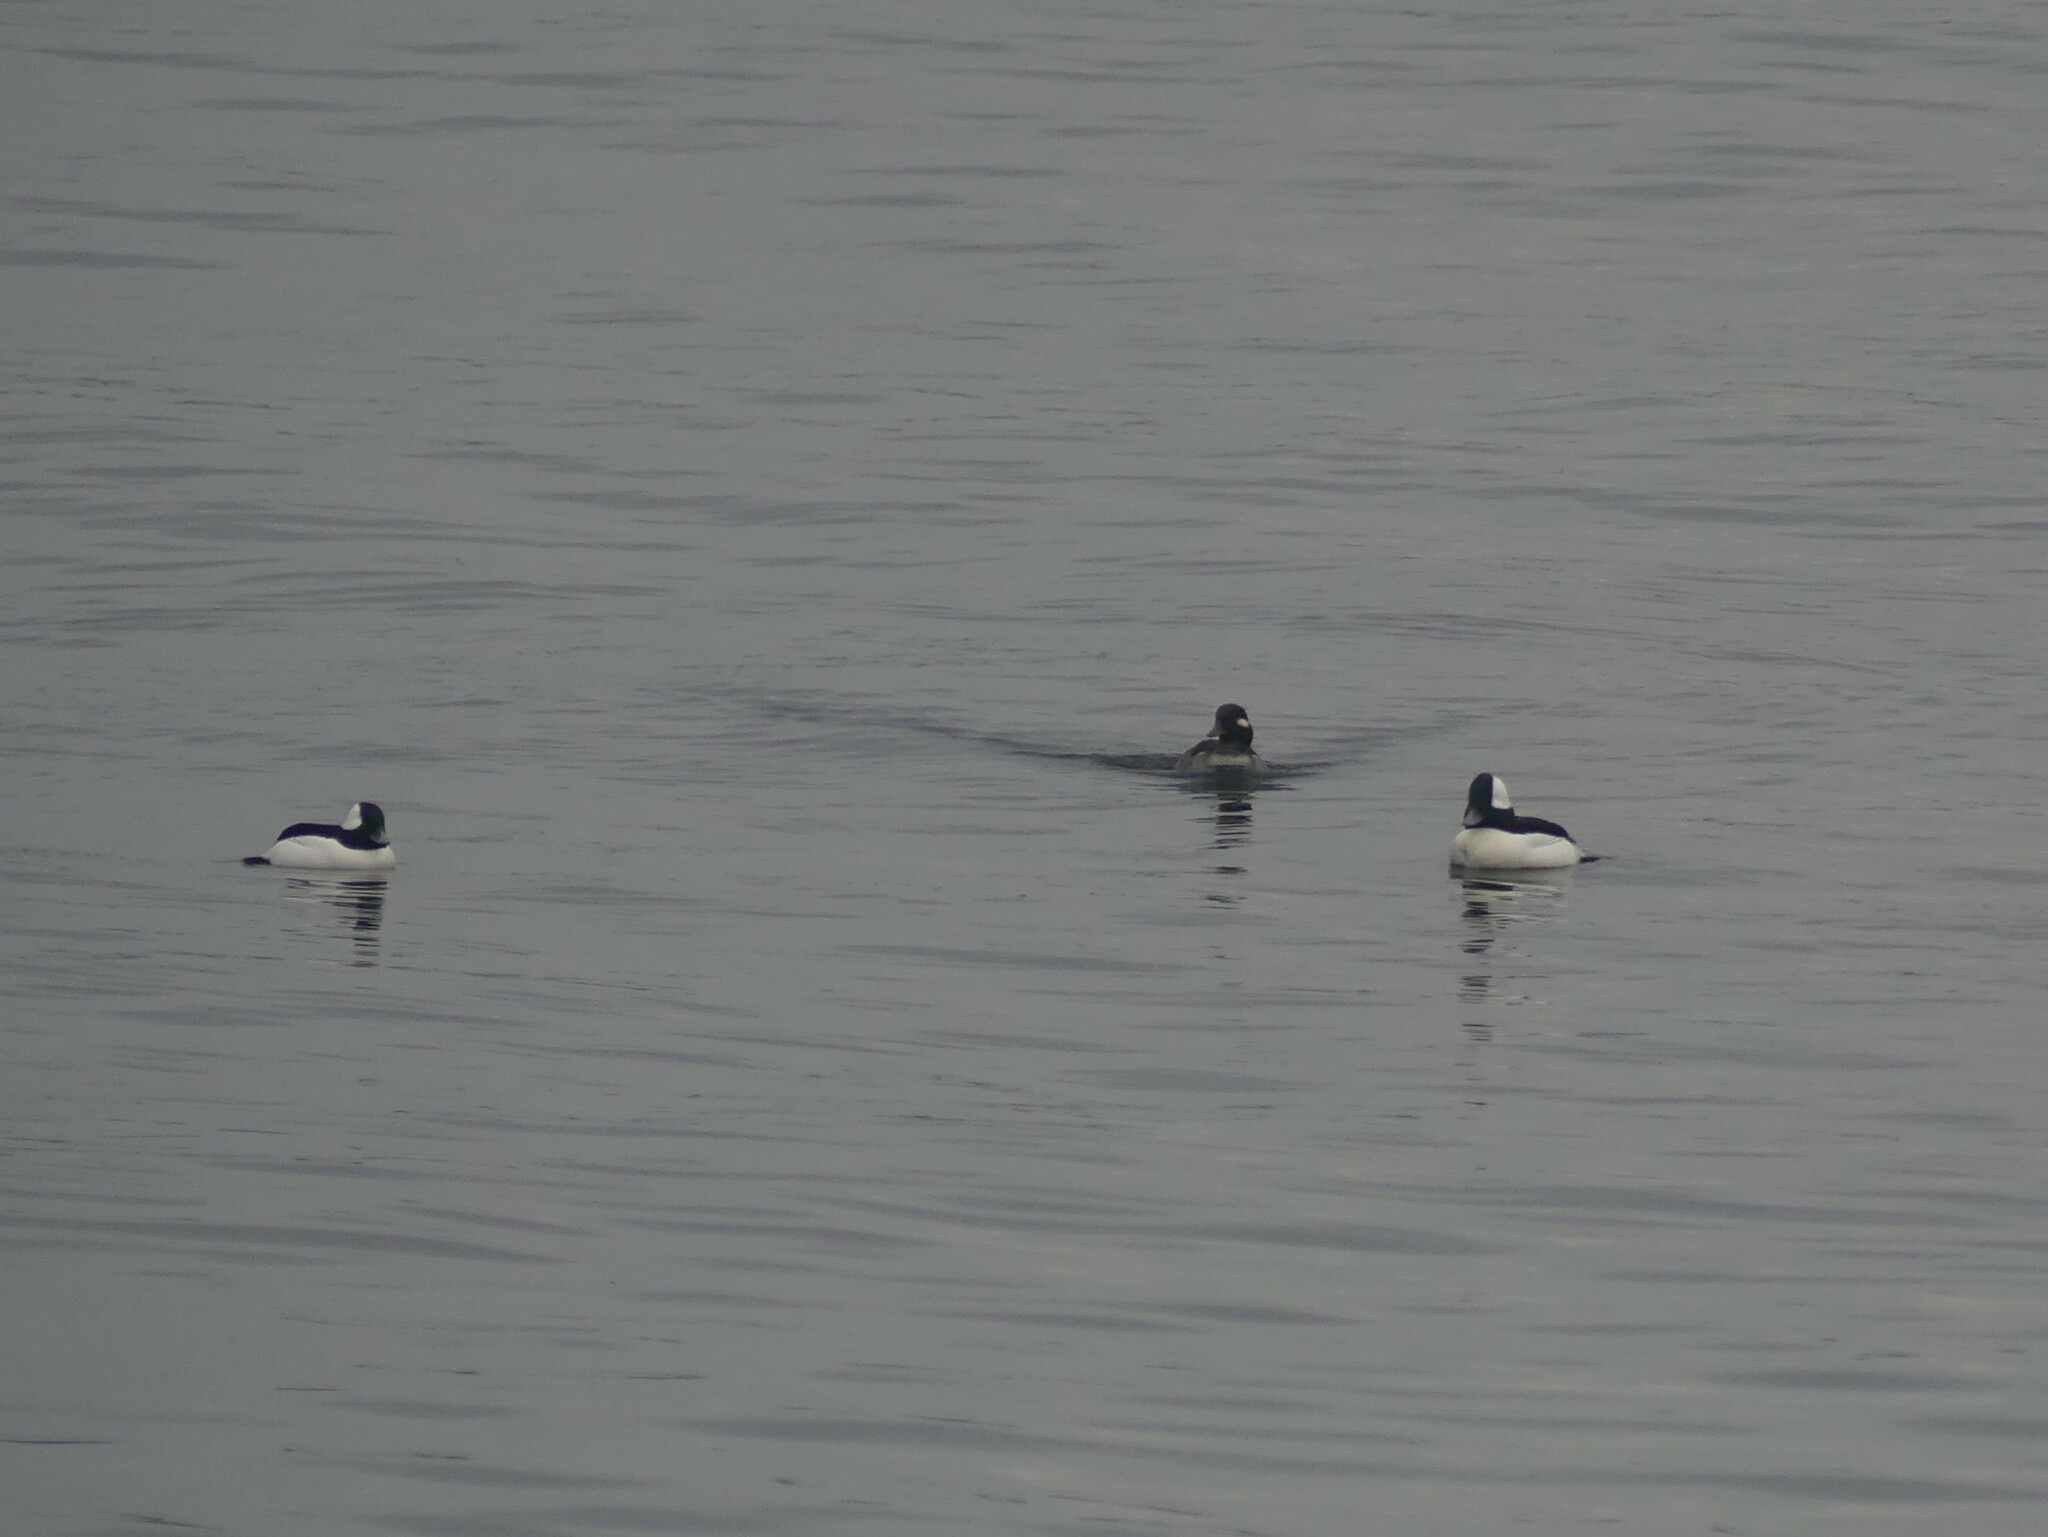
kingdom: Animalia
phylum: Chordata
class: Aves
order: Anseriformes
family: Anatidae
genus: Bucephala
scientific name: Bucephala albeola
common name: Bufflehead
